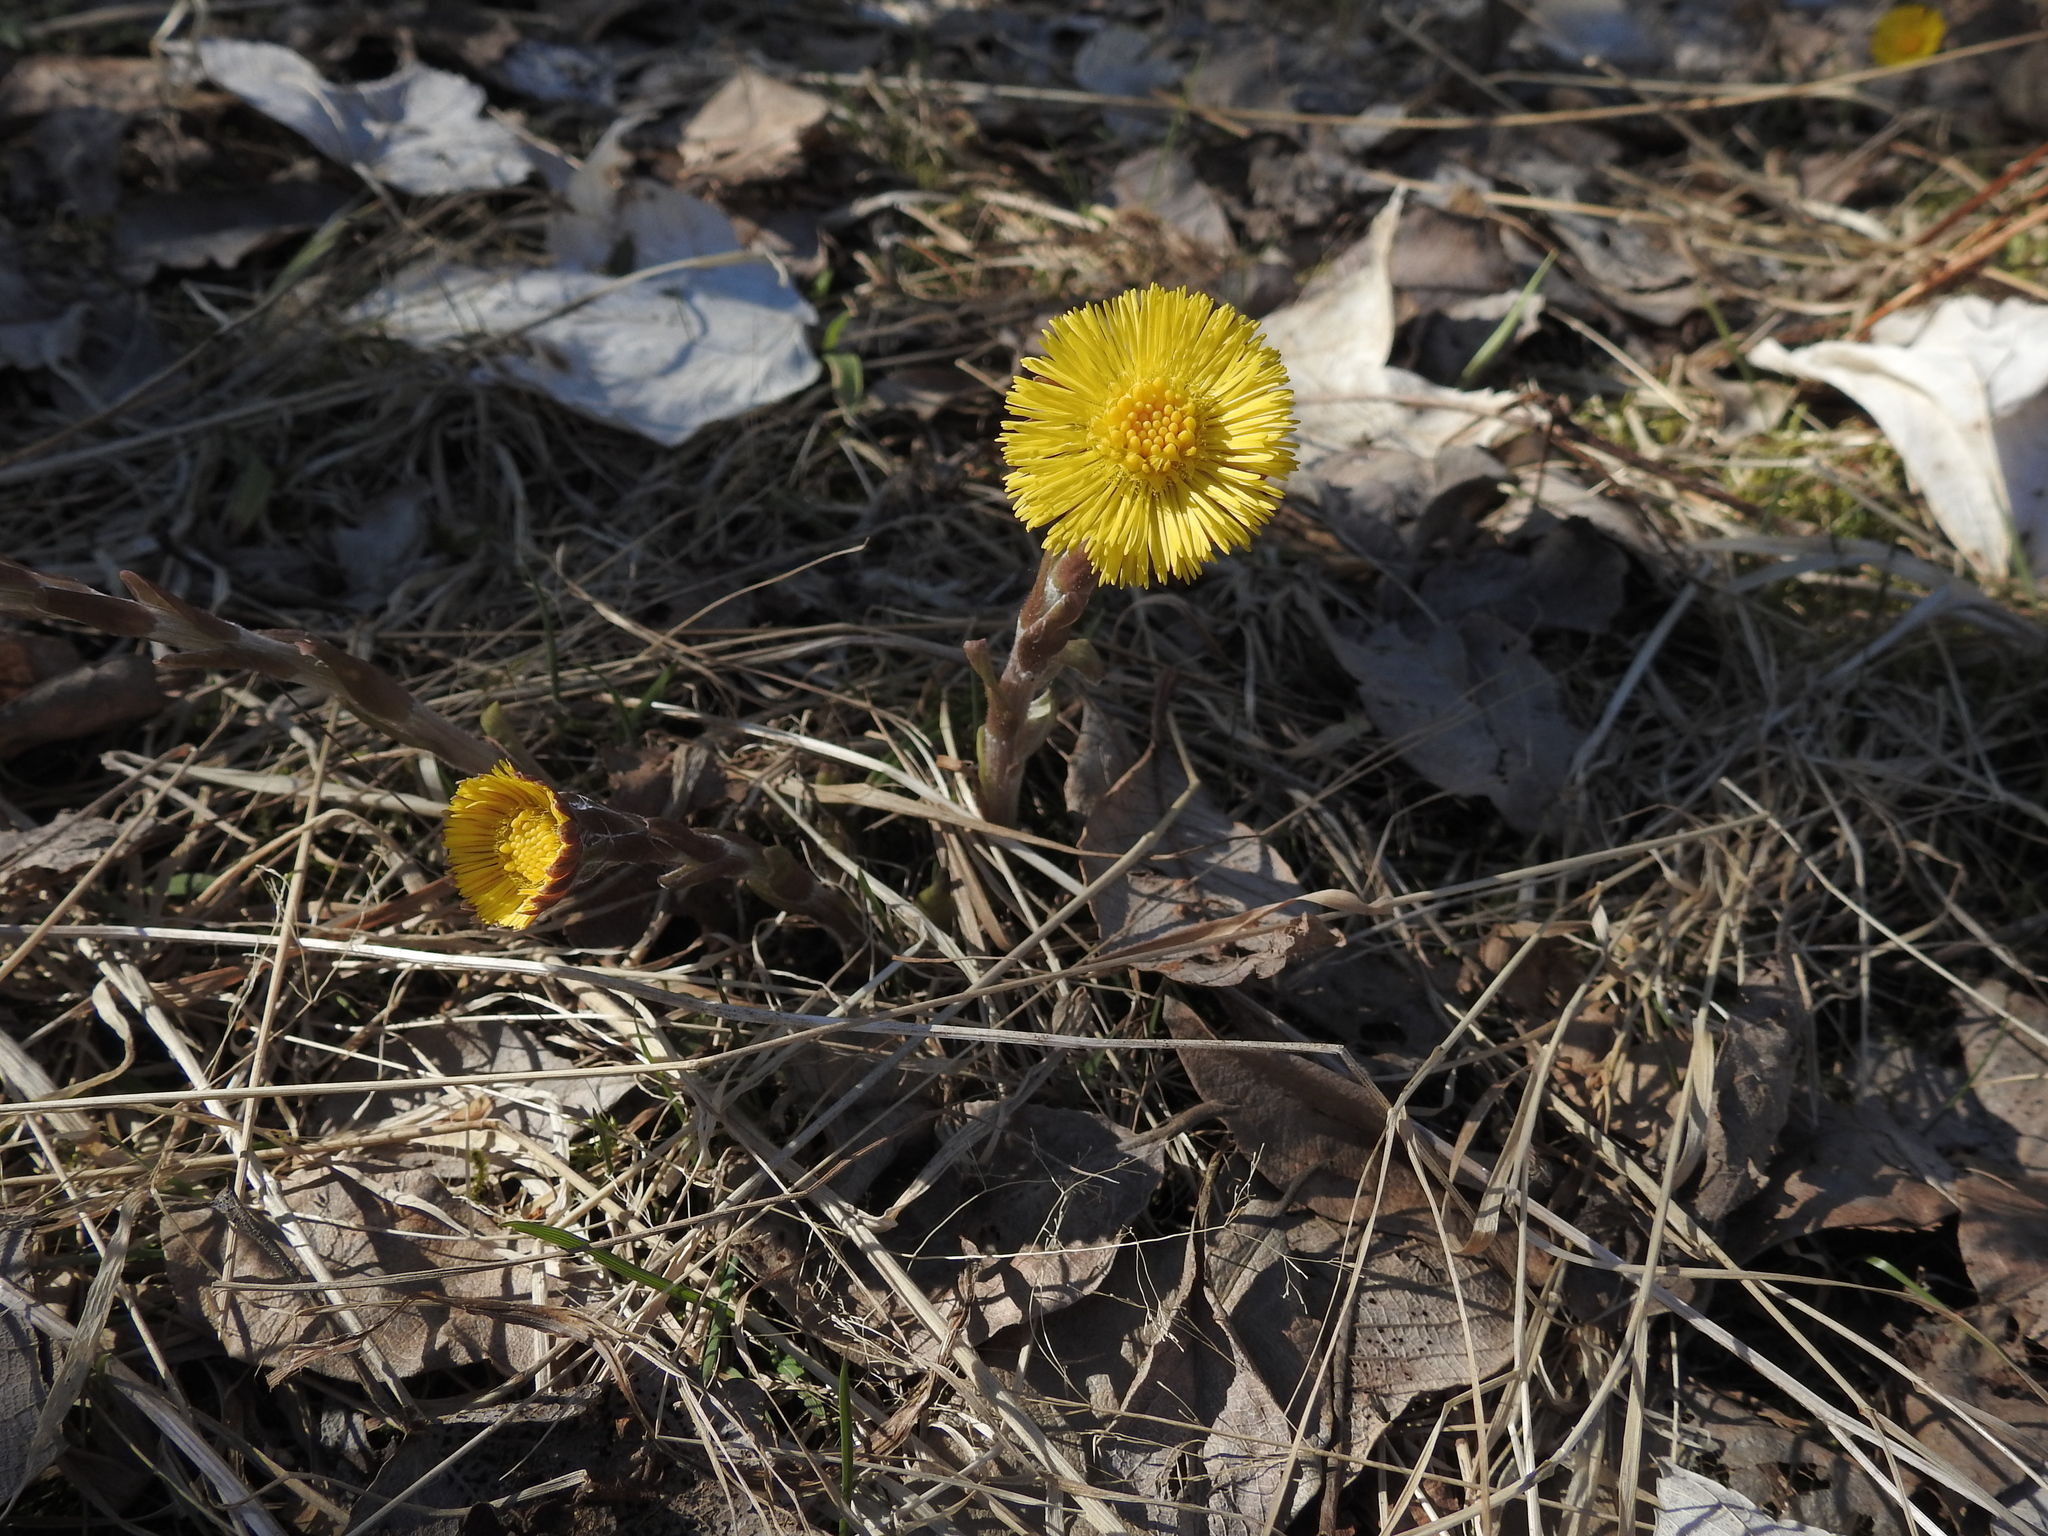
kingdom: Plantae
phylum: Tracheophyta
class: Magnoliopsida
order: Asterales
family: Asteraceae
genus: Tussilago
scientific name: Tussilago farfara
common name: Coltsfoot
